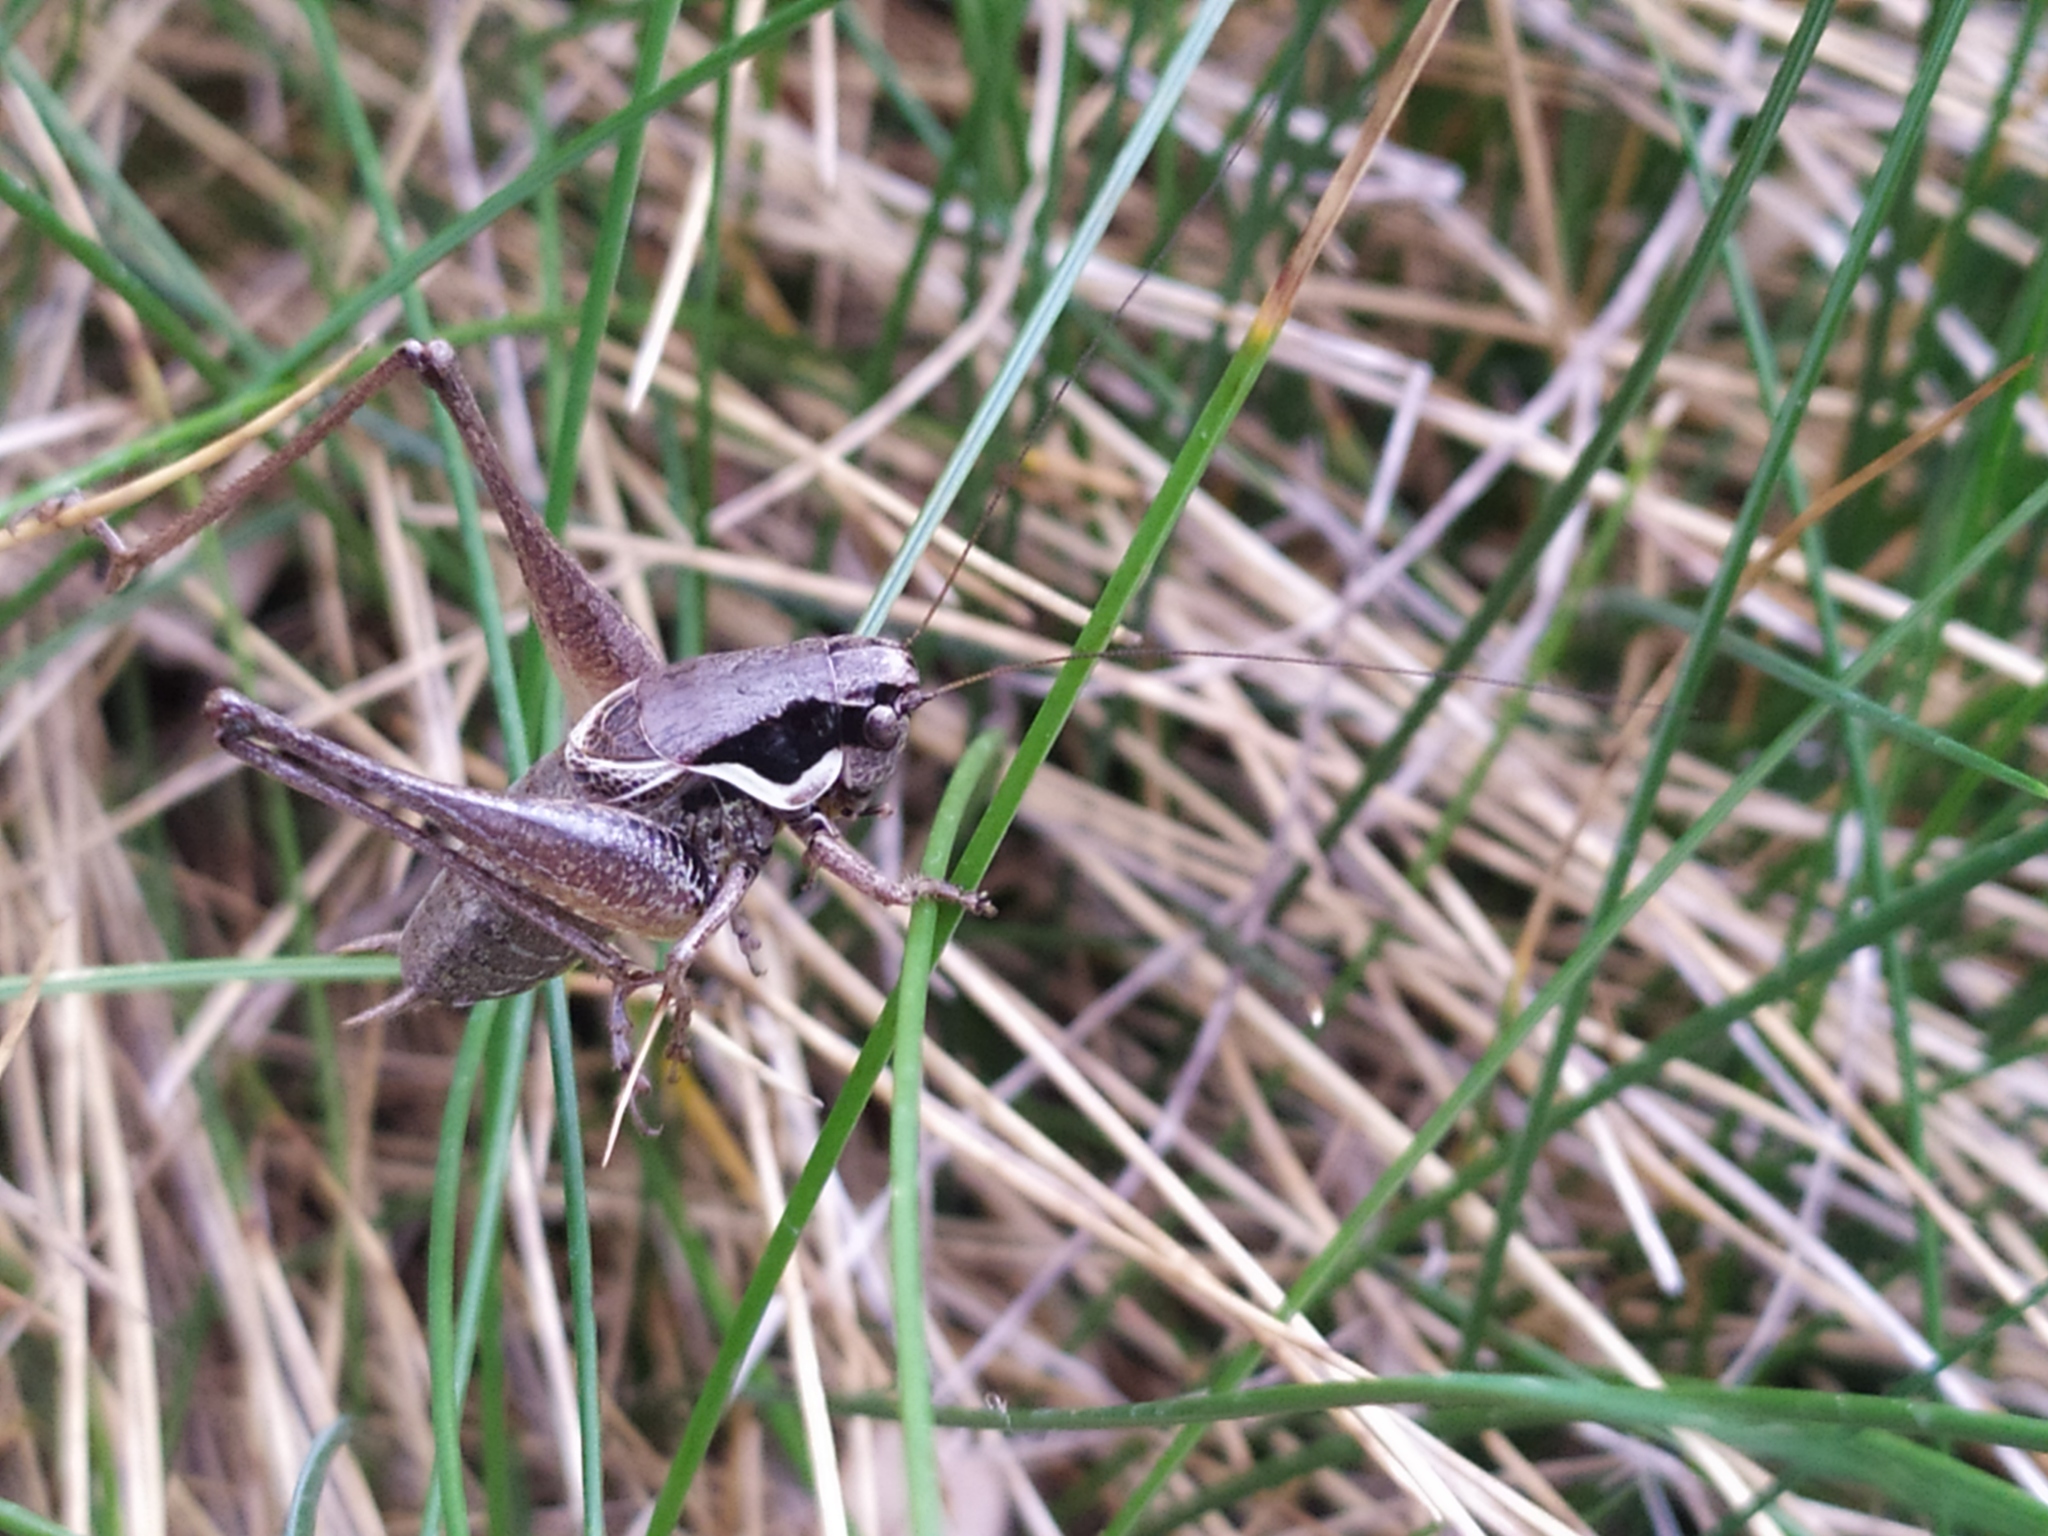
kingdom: Animalia
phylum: Arthropoda
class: Insecta
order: Orthoptera
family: Tettigoniidae
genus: Pholidoptera
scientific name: Pholidoptera fallax
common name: Fischer's bush-cricket
